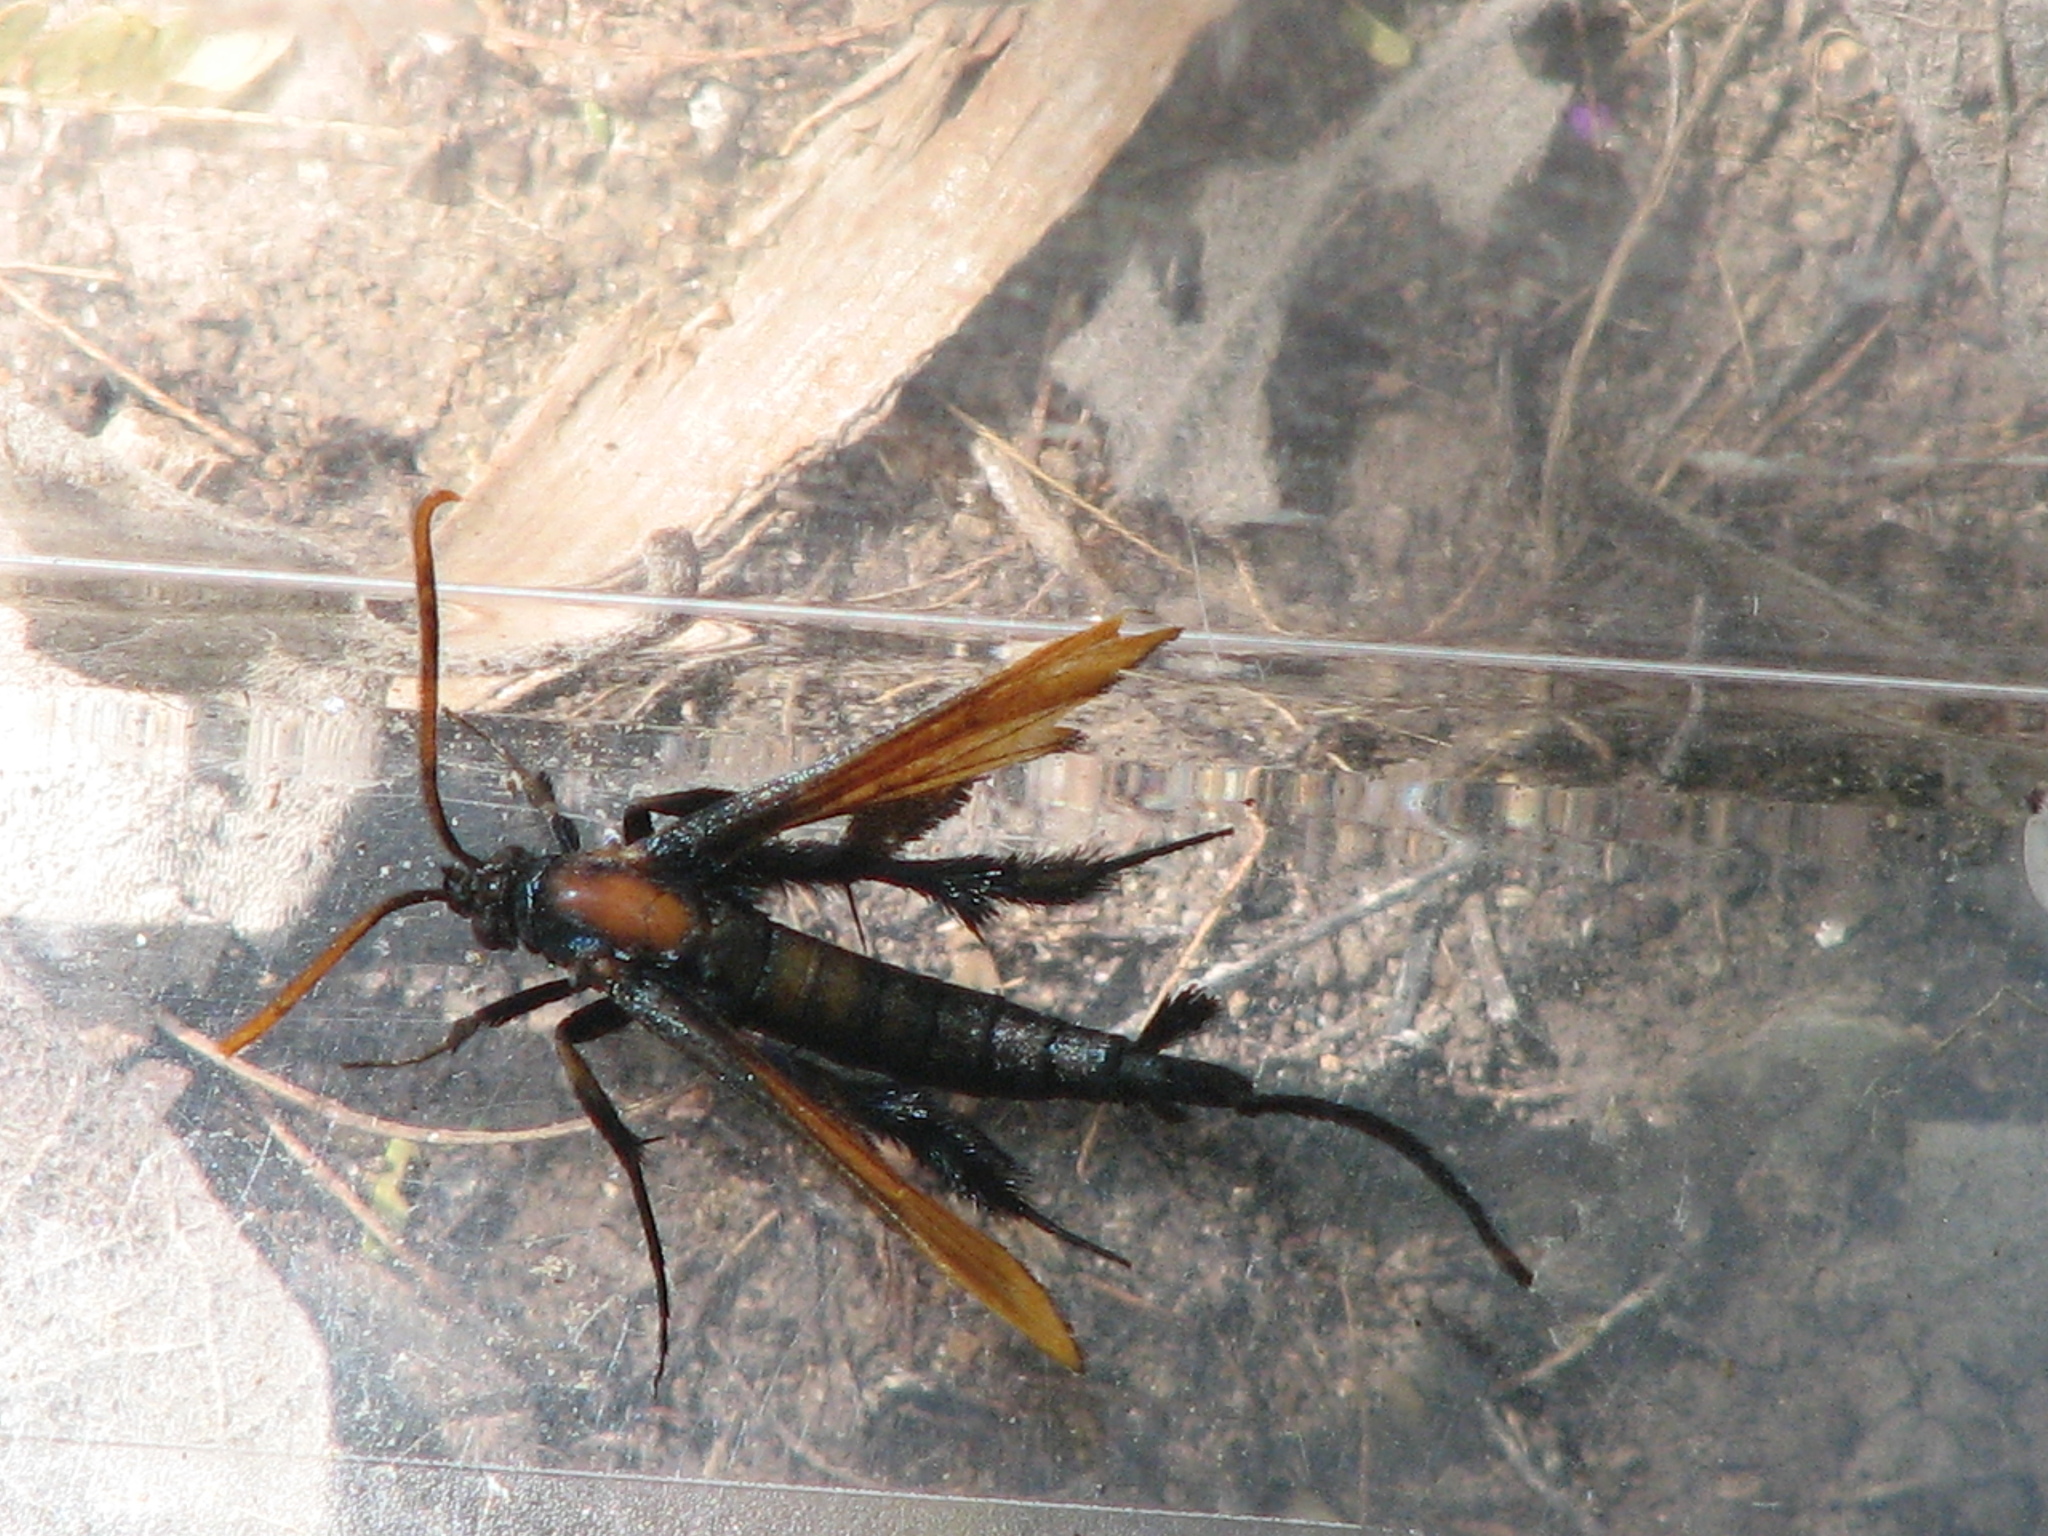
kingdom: Animalia
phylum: Arthropoda
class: Insecta
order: Lepidoptera
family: Sesiidae
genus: Alcathoe
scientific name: Alcathoe autumnalis
